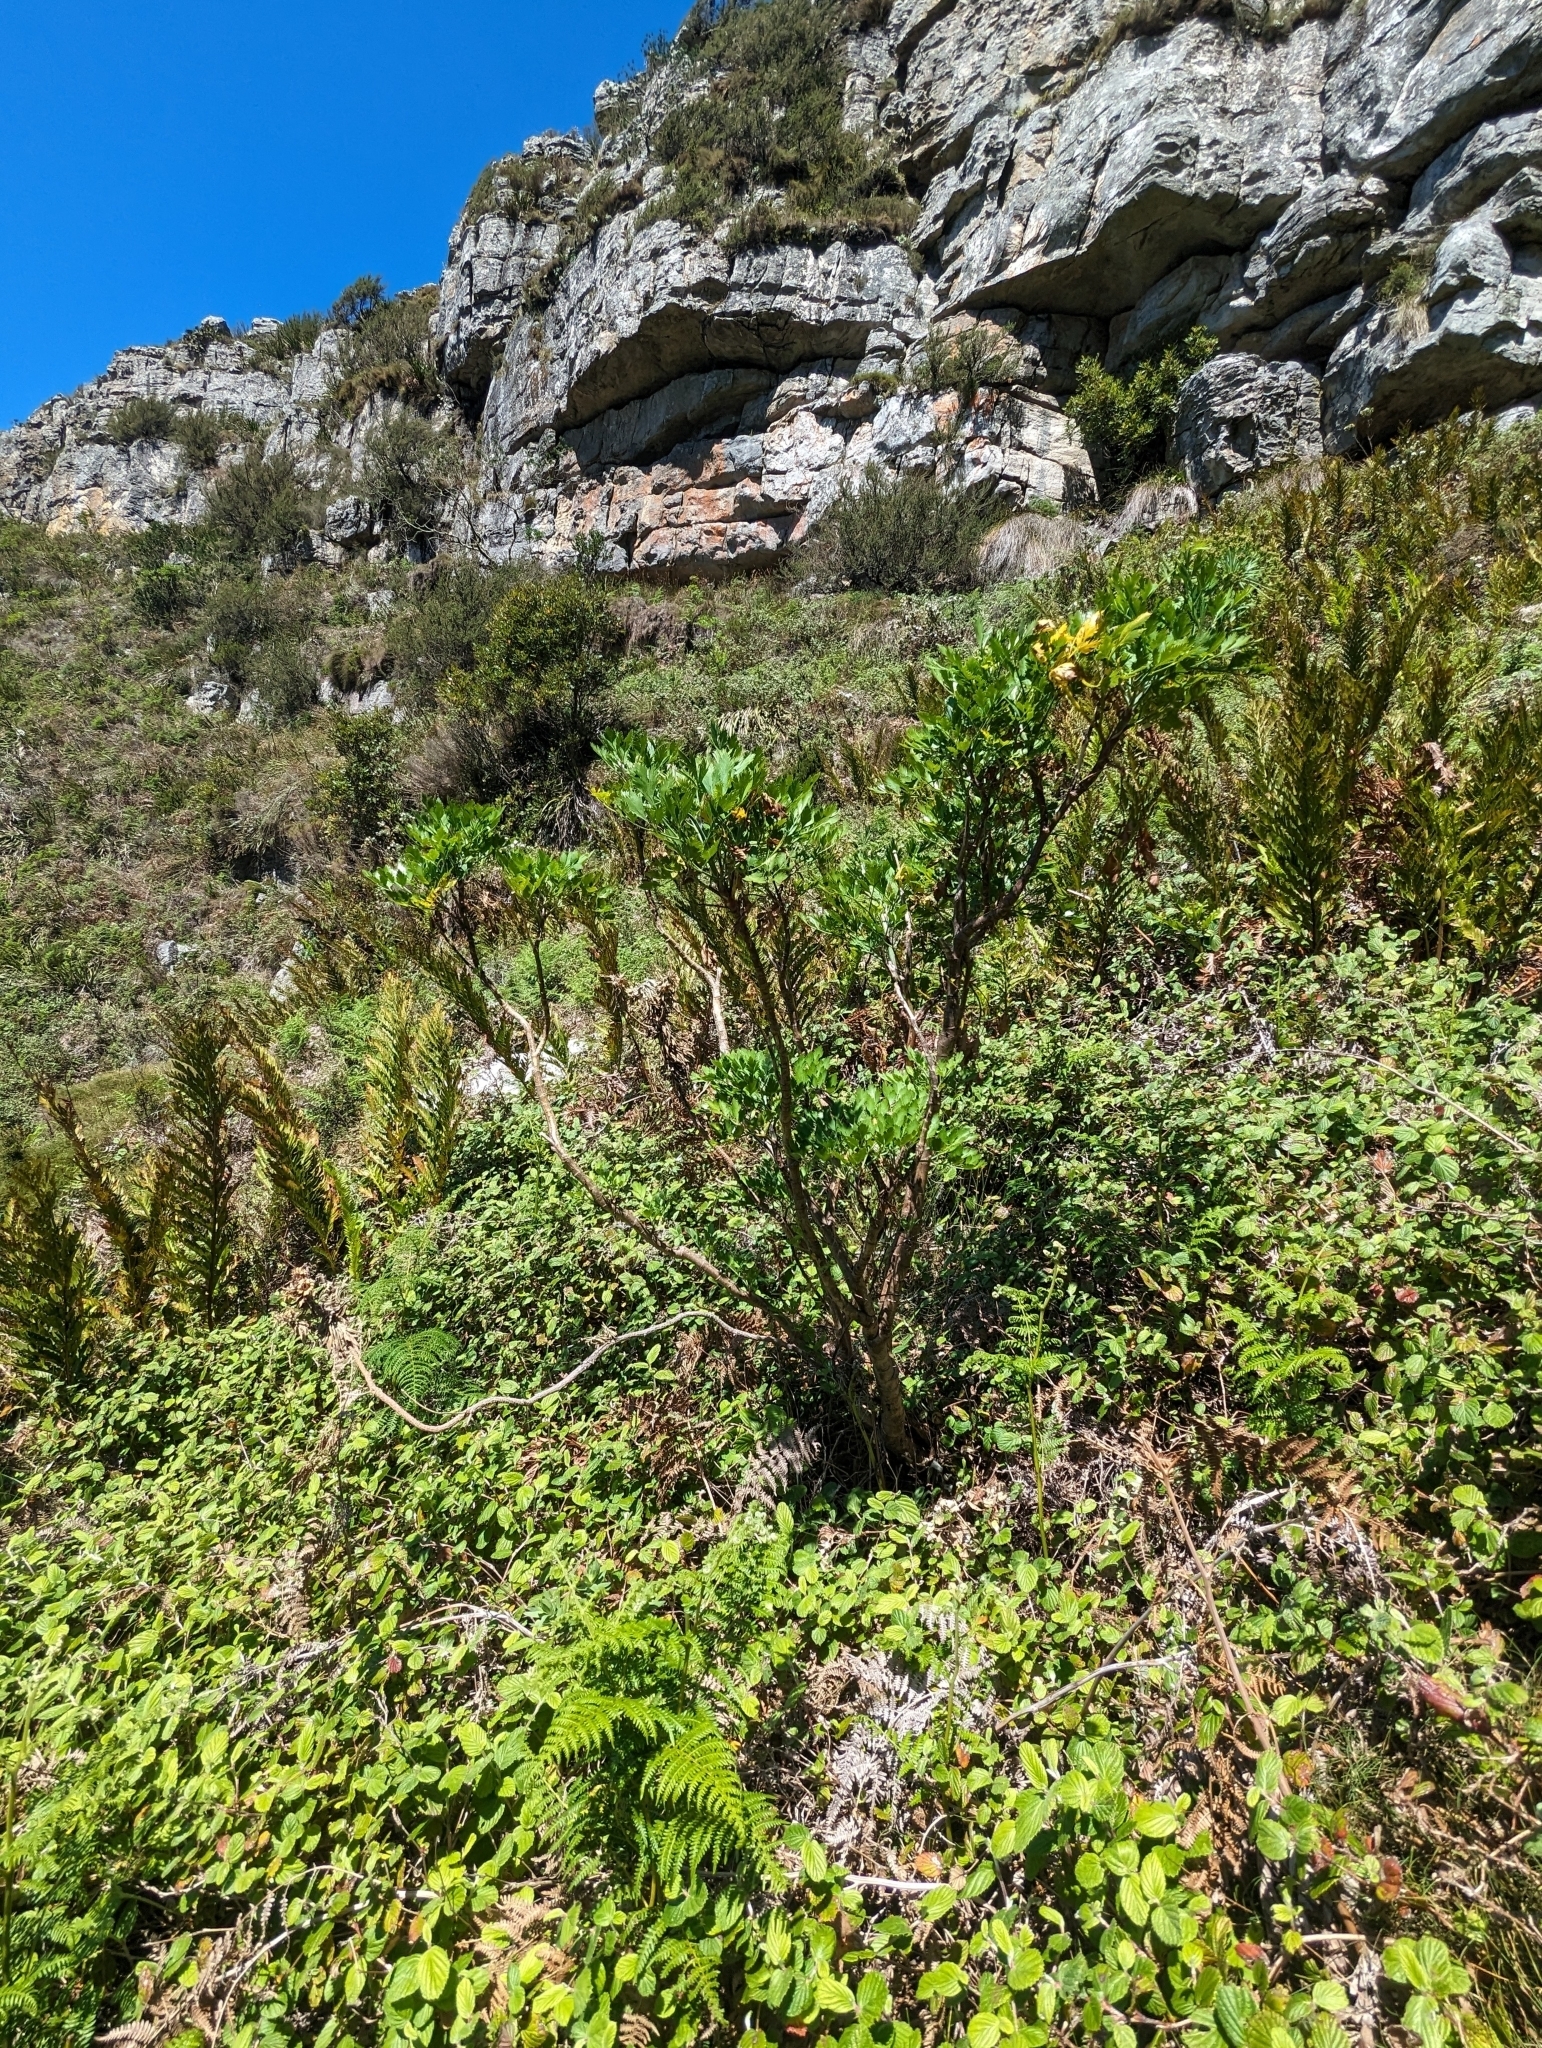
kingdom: Plantae
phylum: Tracheophyta
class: Magnoliopsida
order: Apiales
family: Apiaceae
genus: Notobubon
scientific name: Notobubon galbanum
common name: Blisterbush
